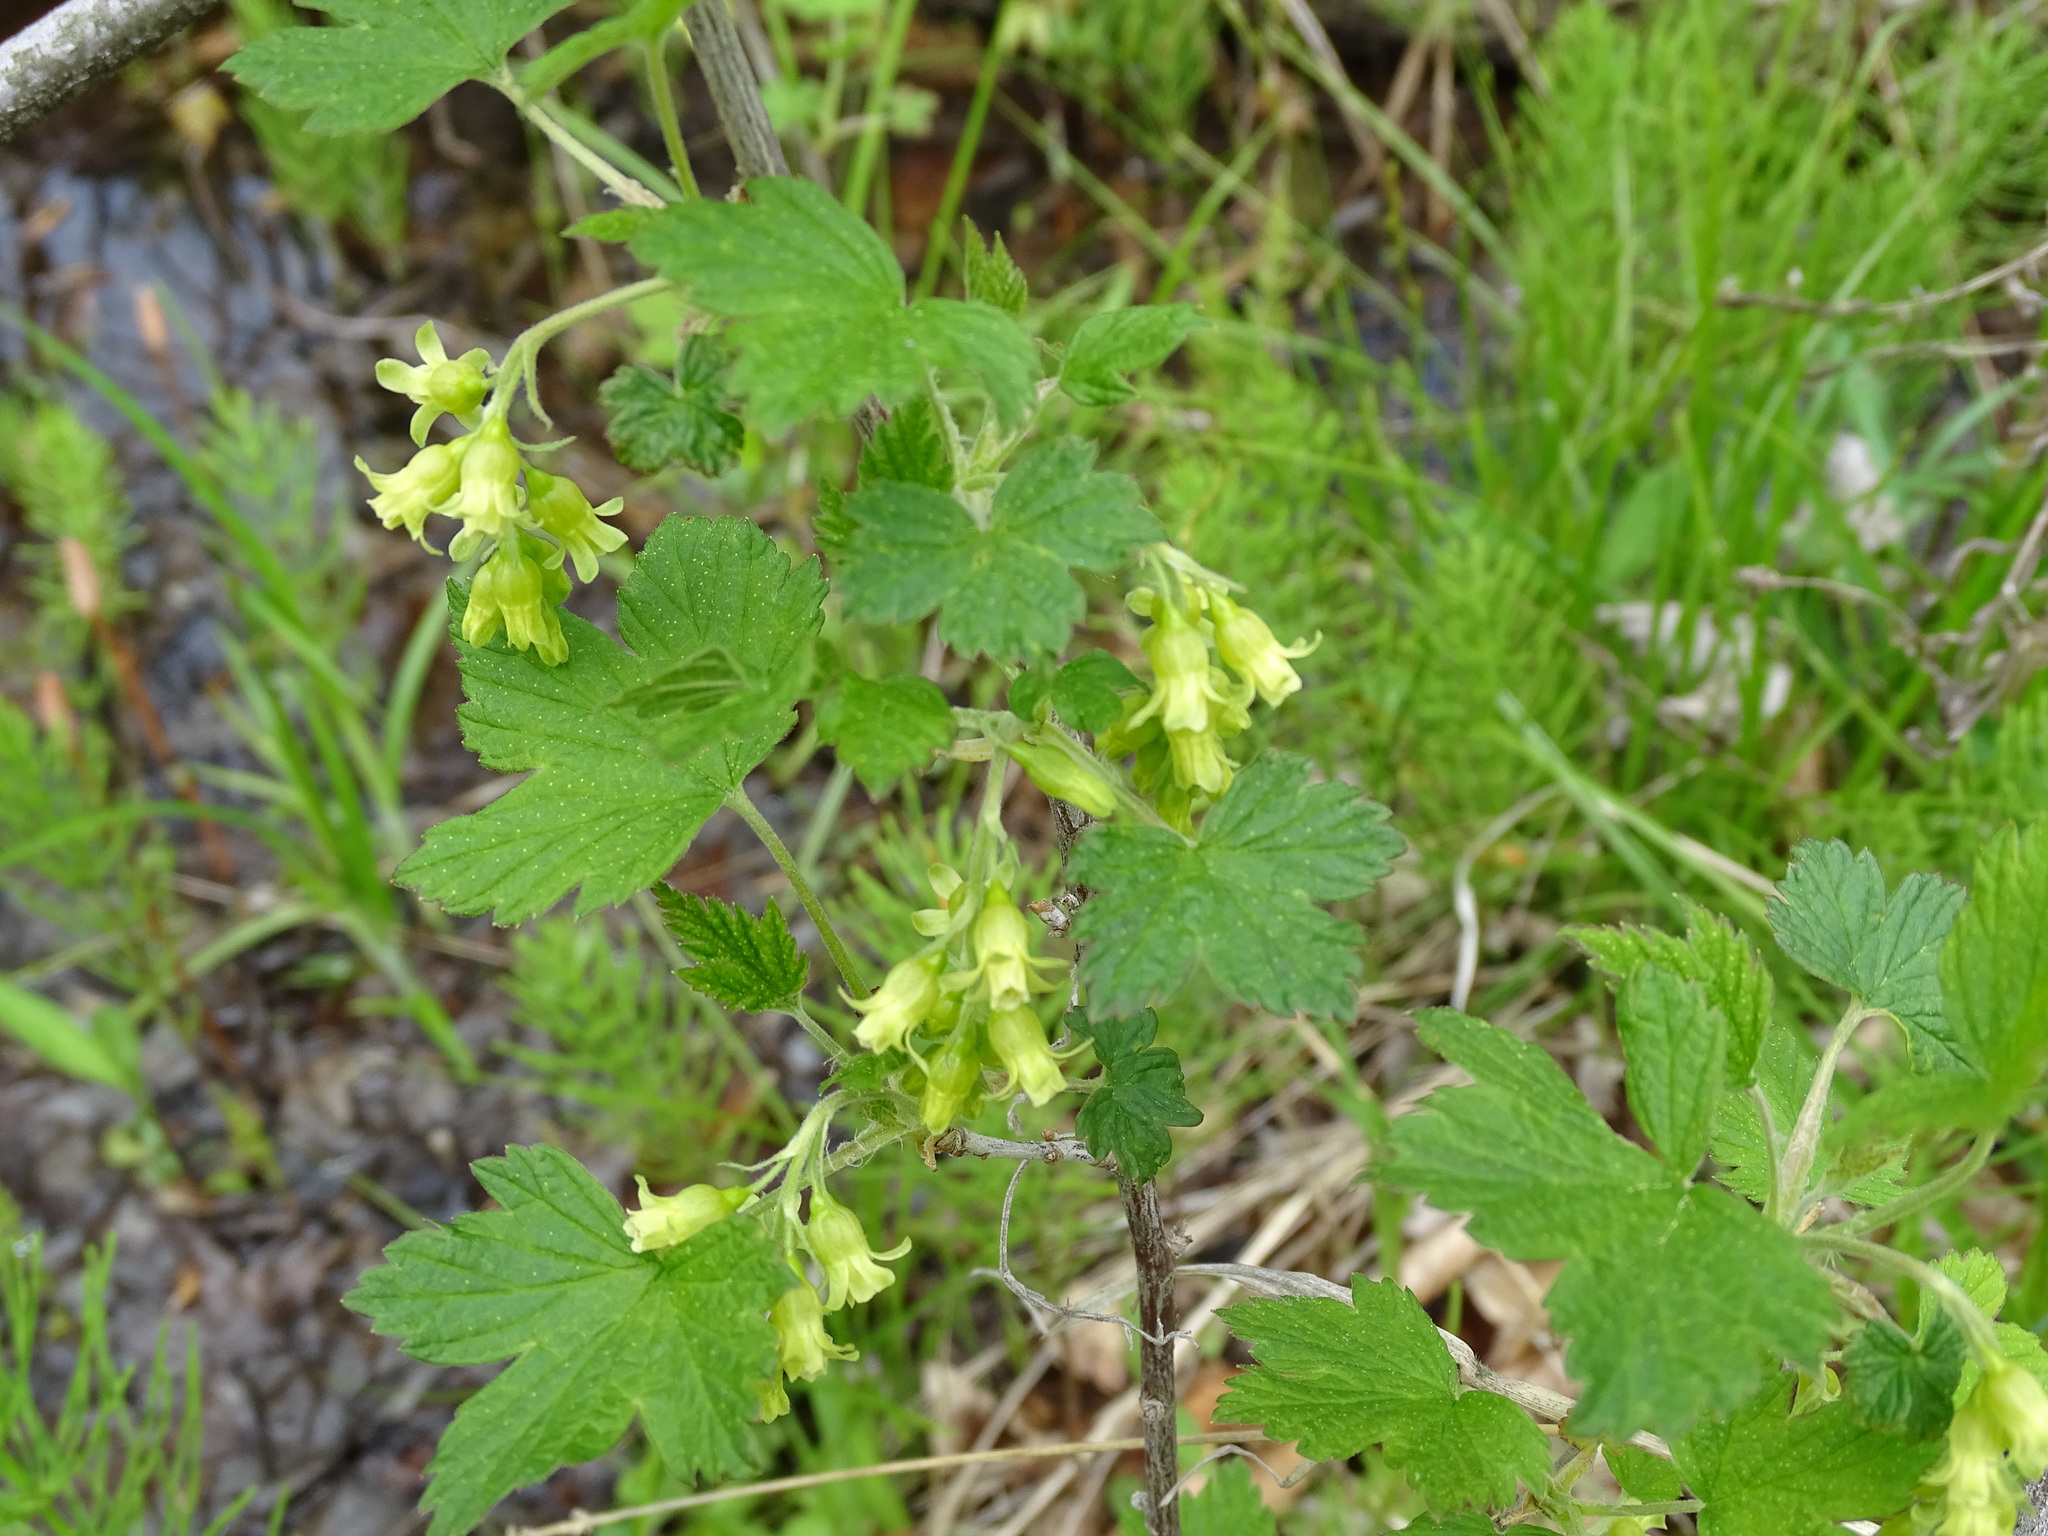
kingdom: Plantae
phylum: Tracheophyta
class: Magnoliopsida
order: Saxifragales
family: Grossulariaceae
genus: Ribes
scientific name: Ribes americanum
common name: American black currant
